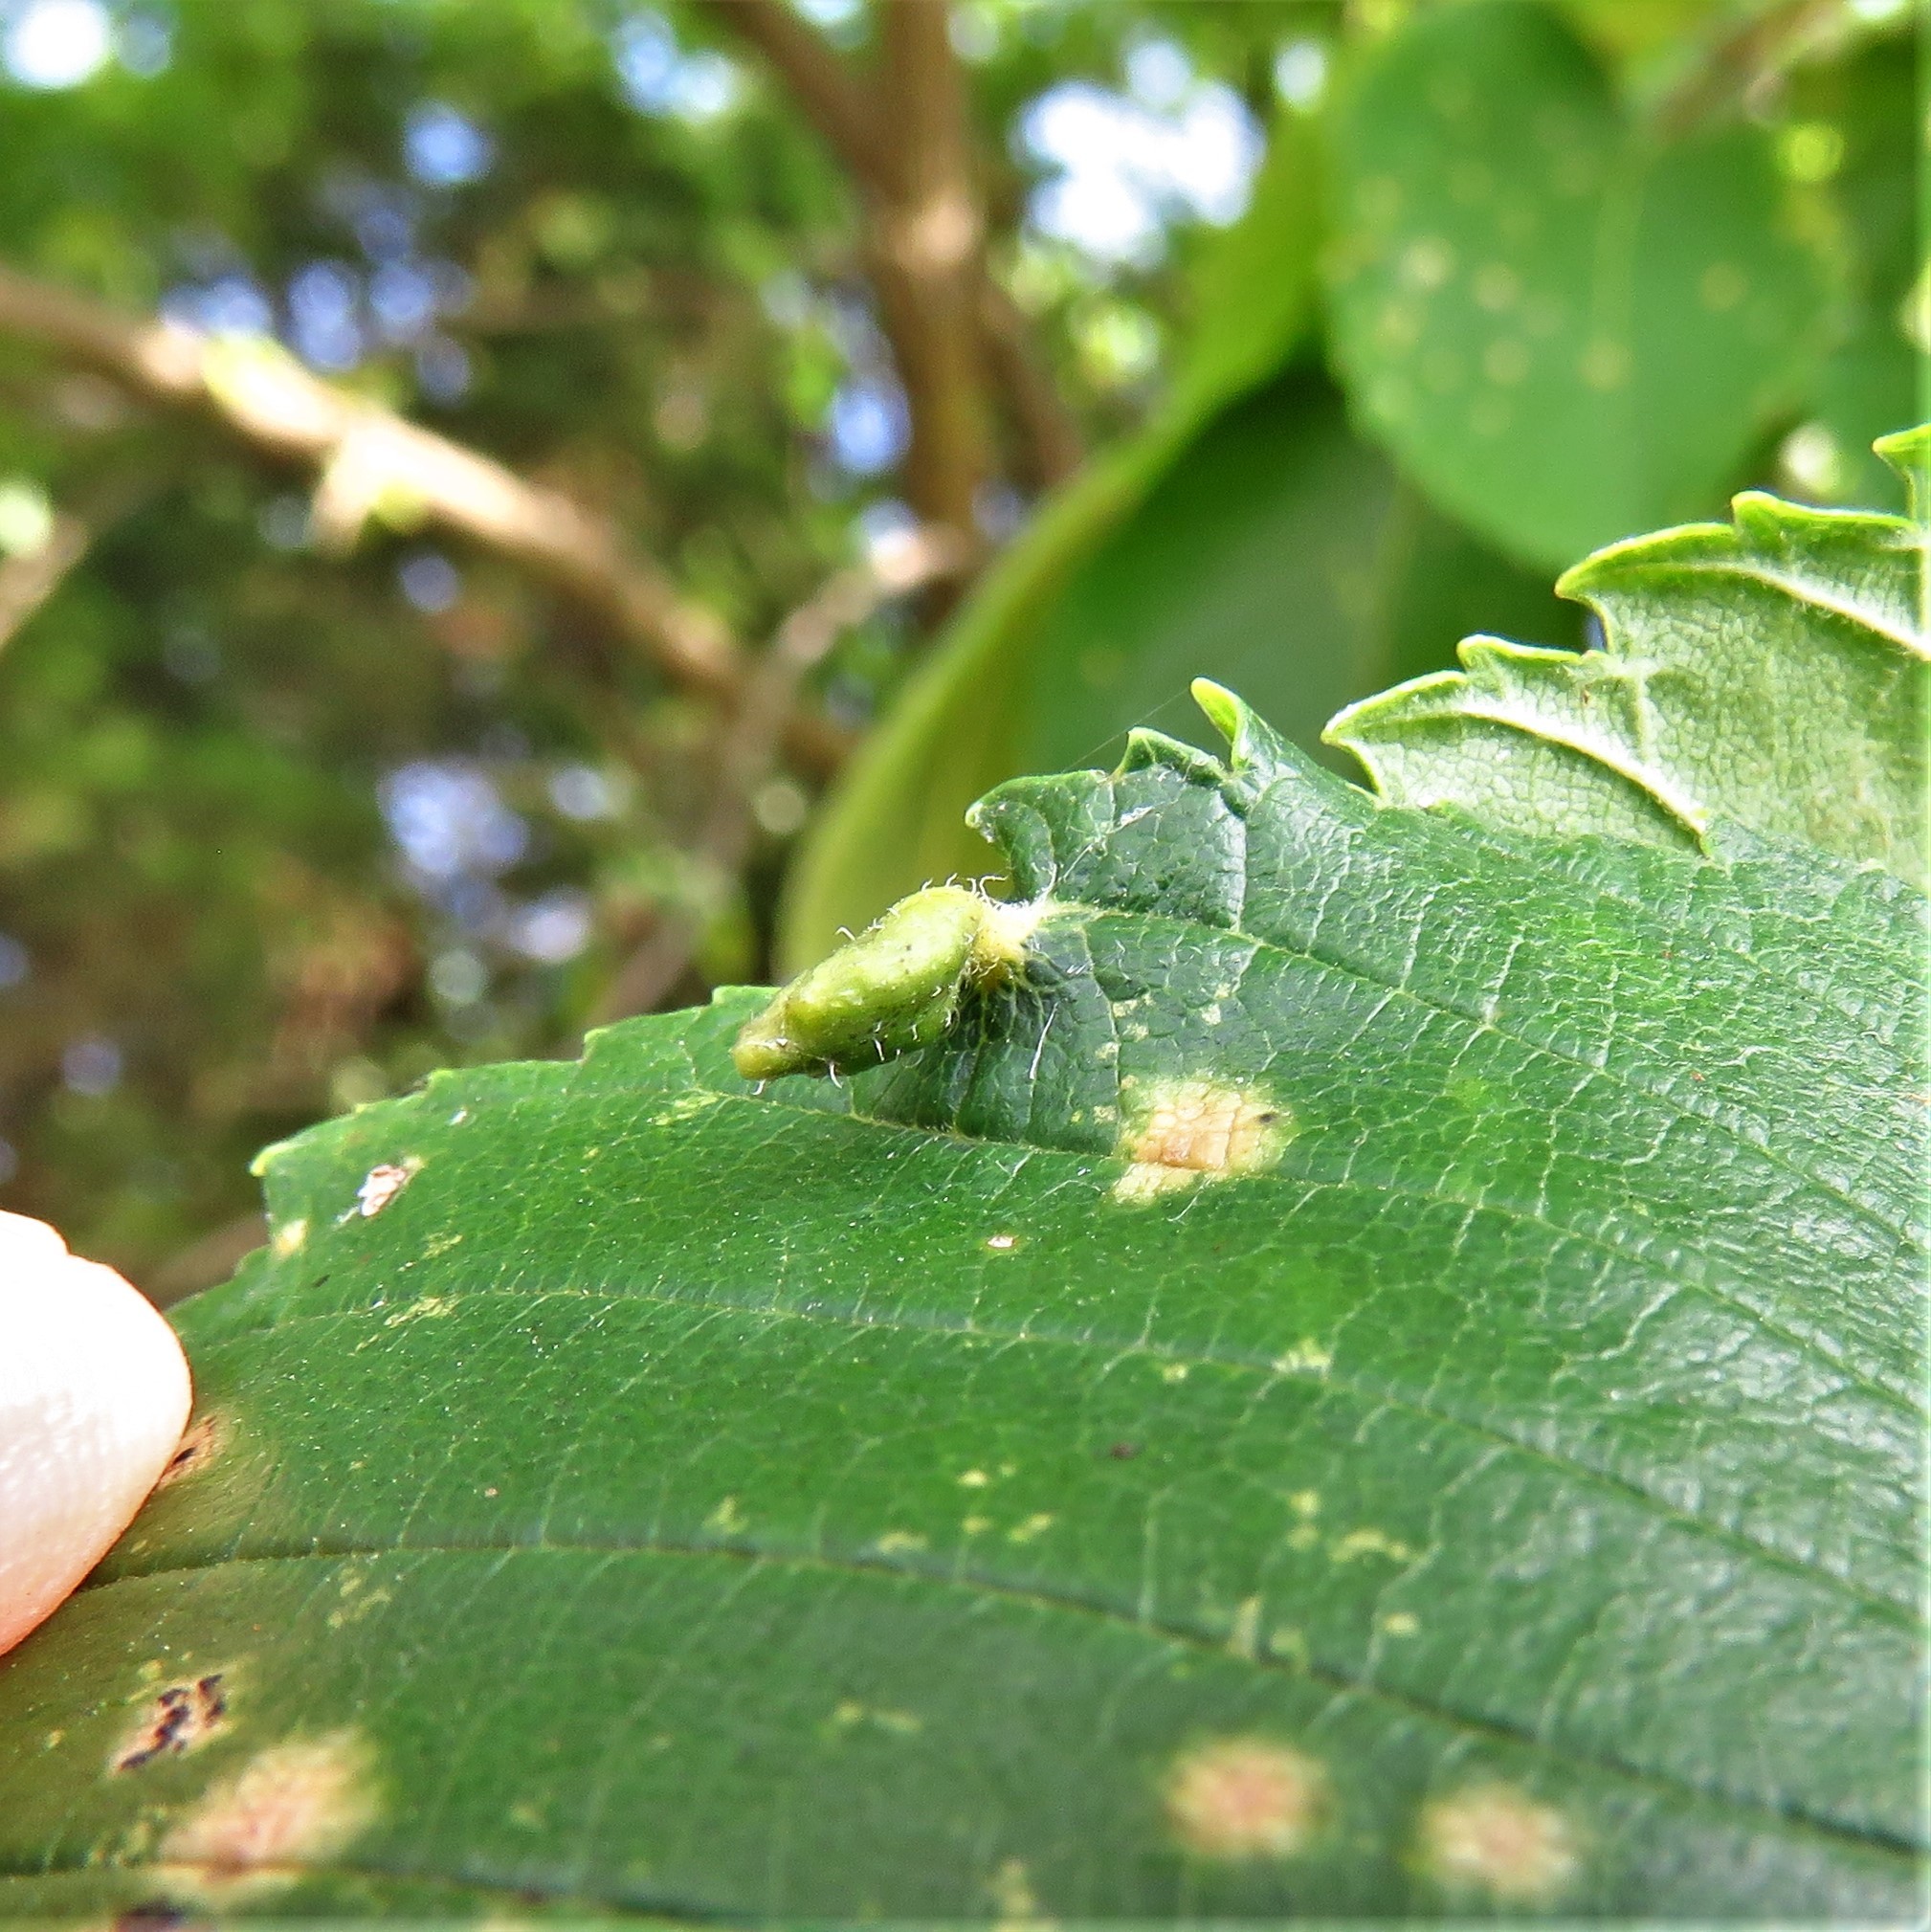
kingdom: Animalia
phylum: Arthropoda
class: Arachnida
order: Trombidiformes
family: Eriophyidae
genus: Aceria
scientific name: Aceria
